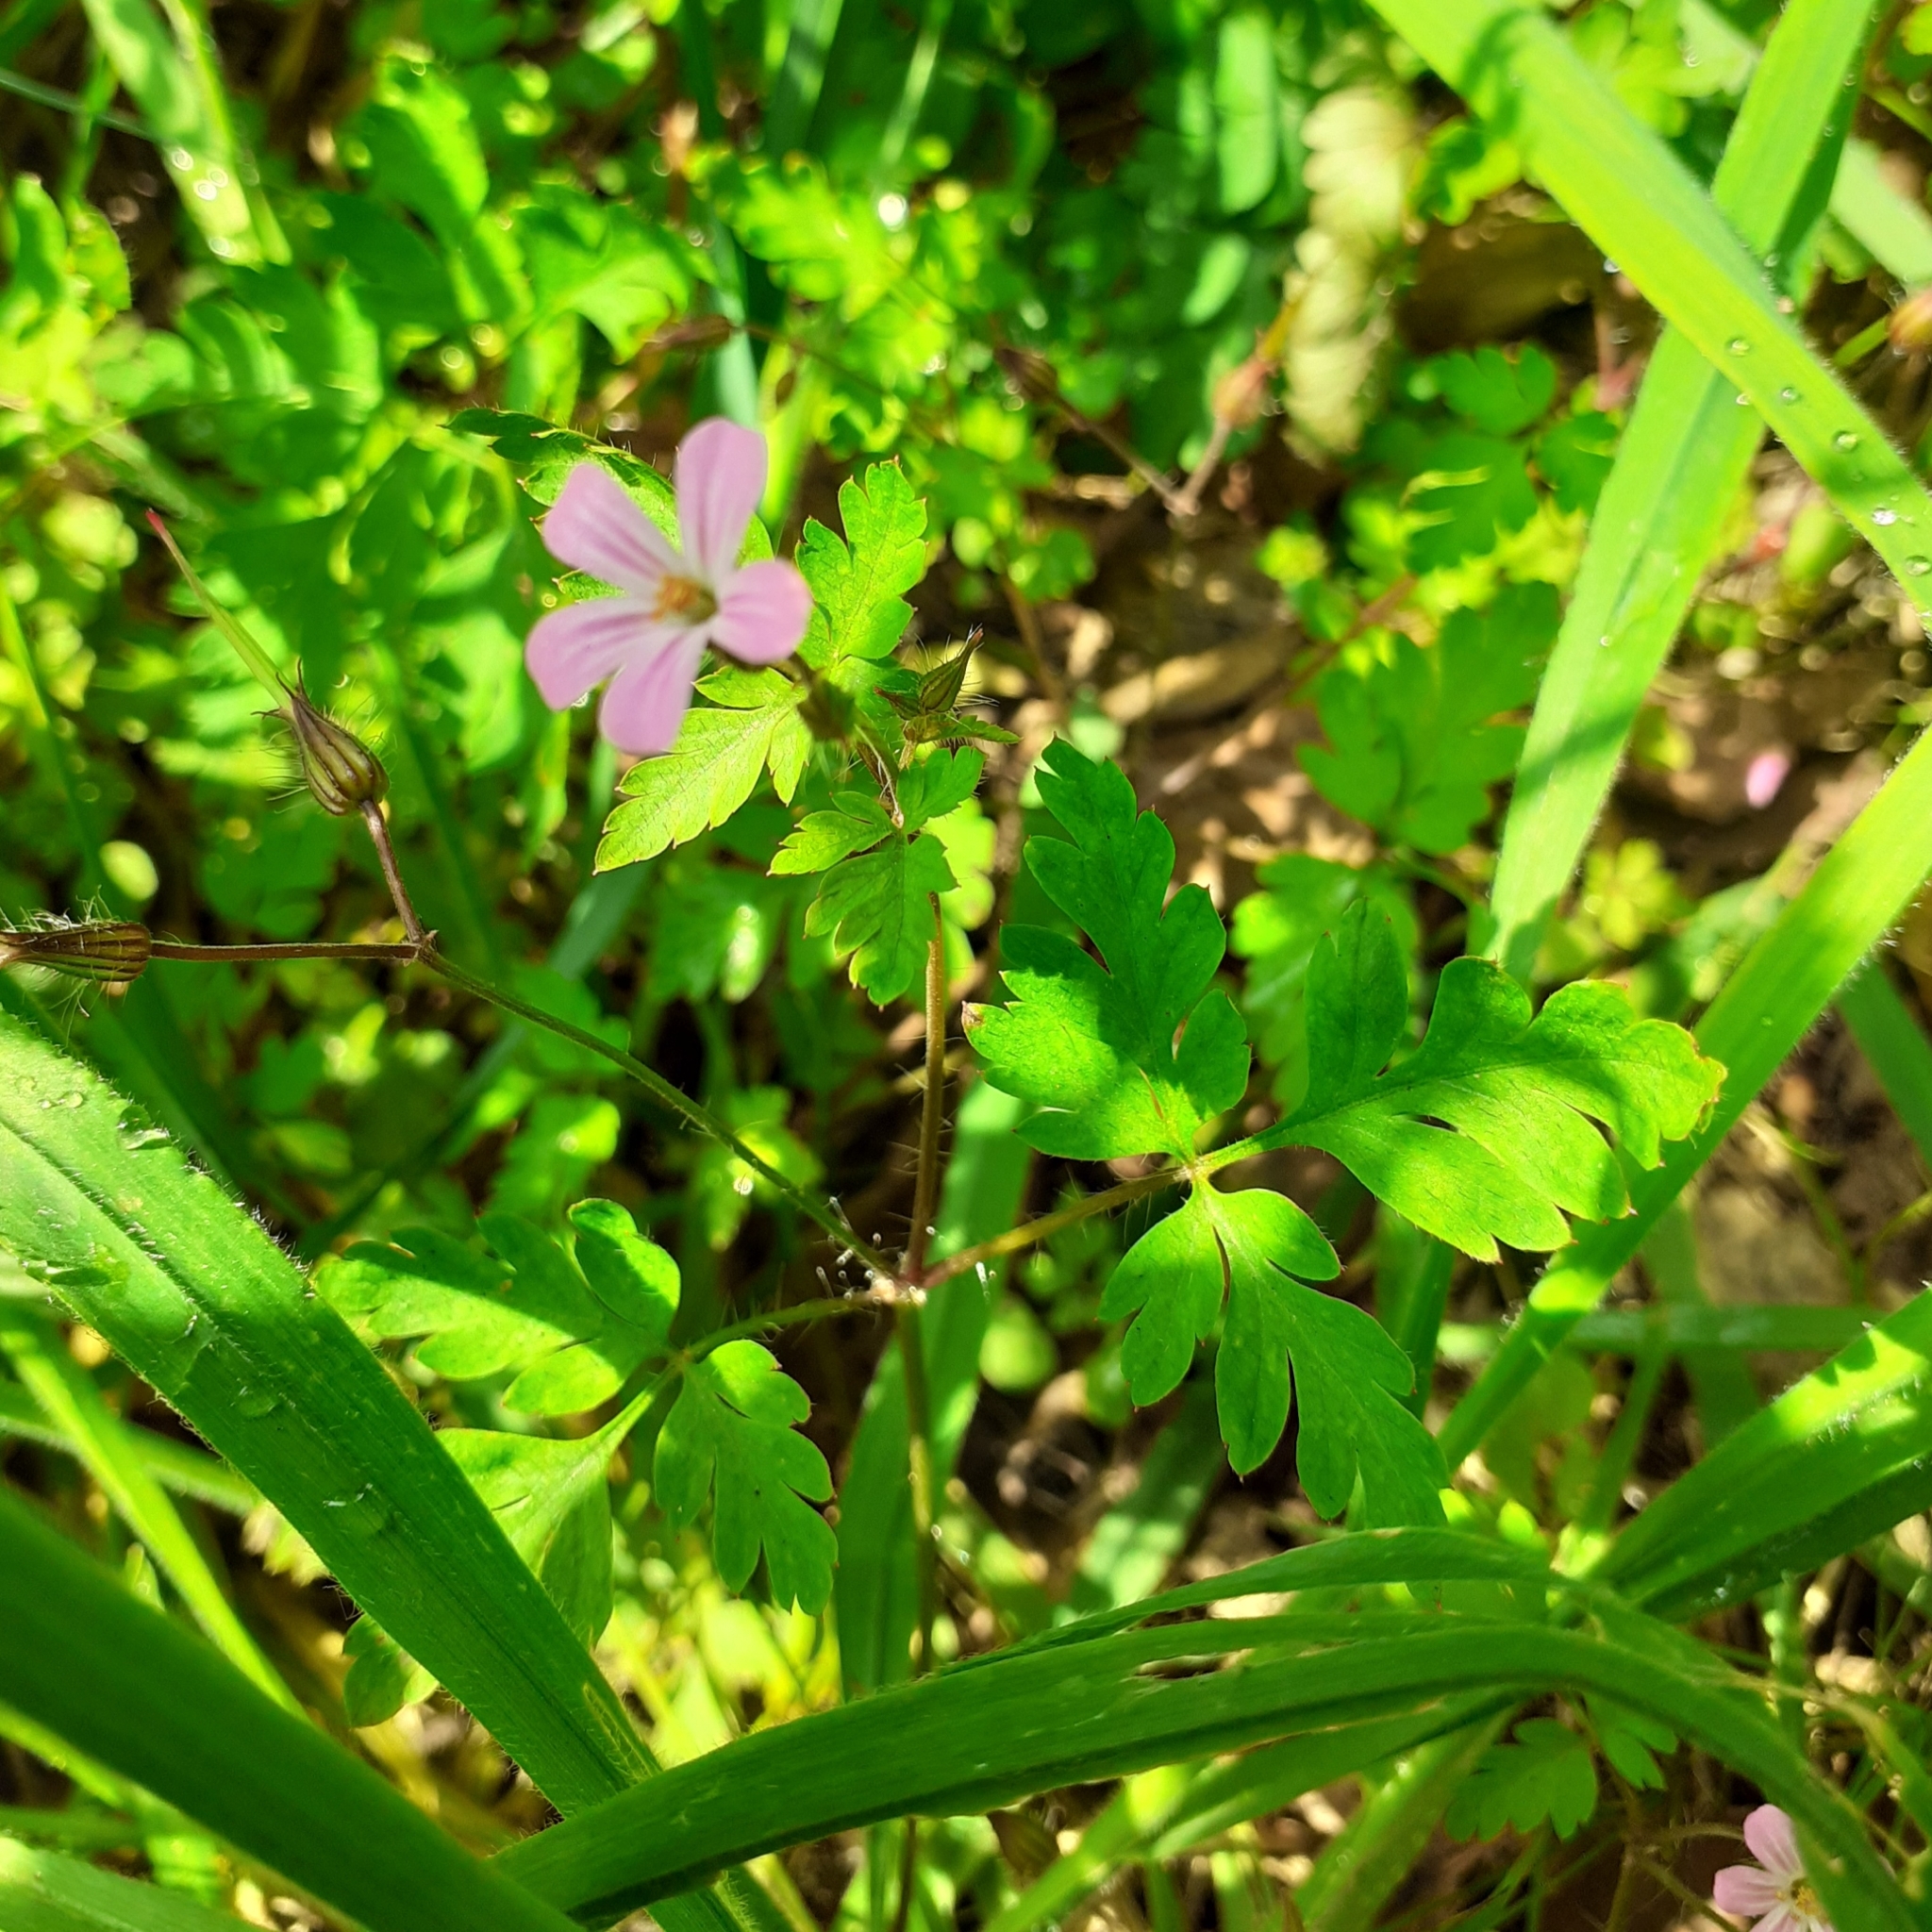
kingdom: Plantae
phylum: Tracheophyta
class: Magnoliopsida
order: Geraniales
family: Geraniaceae
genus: Geranium
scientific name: Geranium robertianum
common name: Herb-robert
